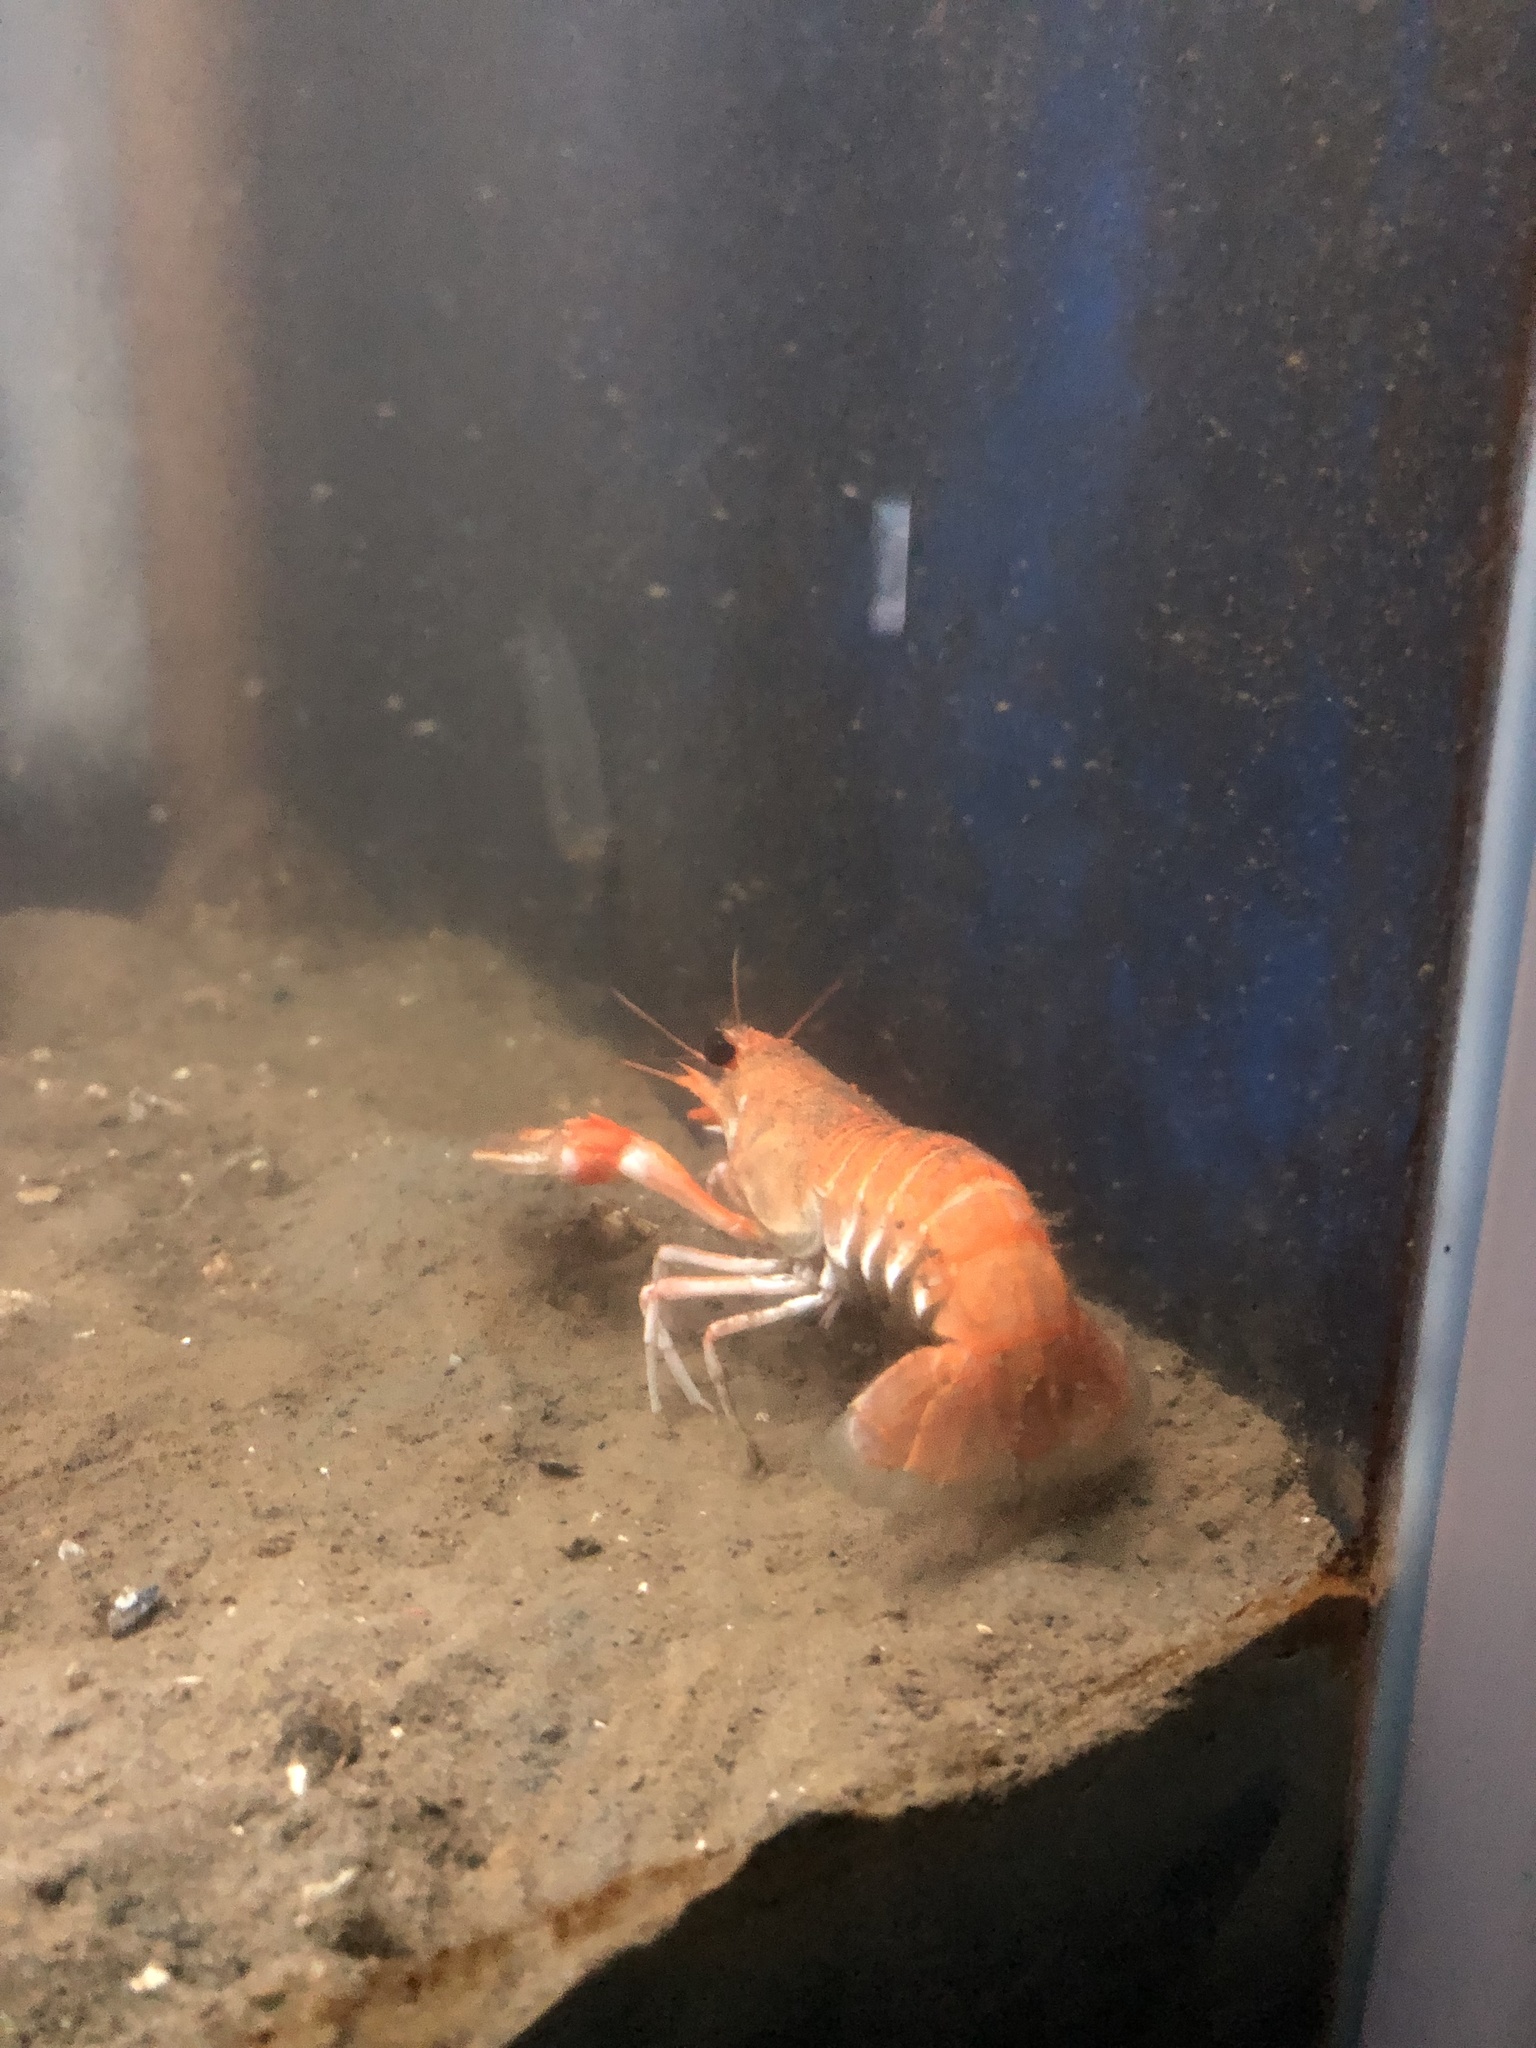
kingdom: Animalia
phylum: Arthropoda
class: Malacostraca
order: Decapoda
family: Nephropidae
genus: Nephrops
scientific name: Nephrops norvegicus
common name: Norway lobster
